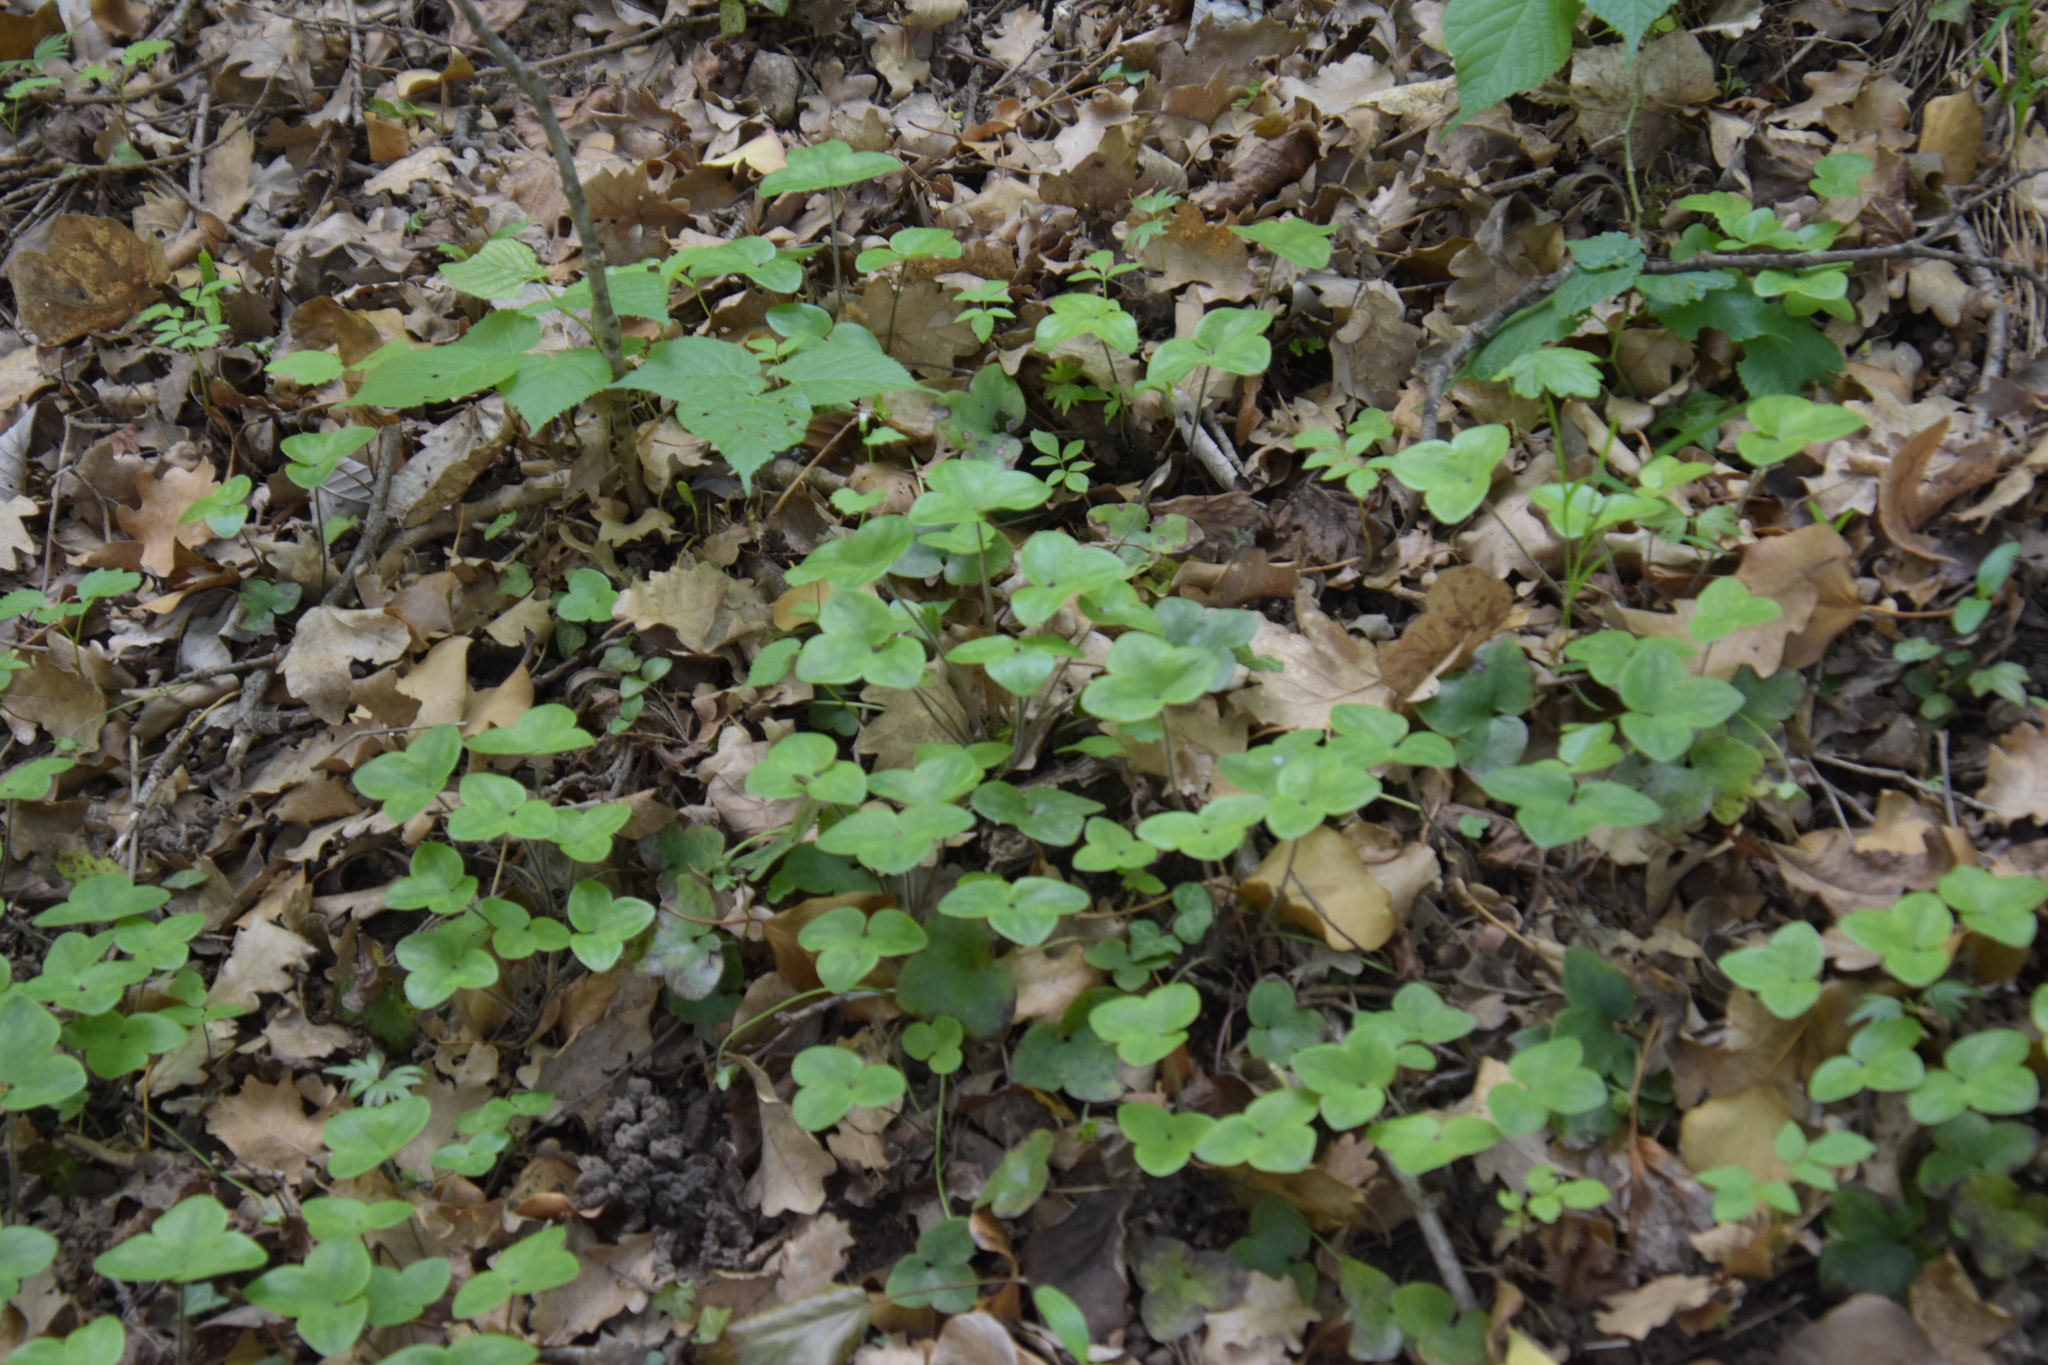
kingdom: Plantae
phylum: Tracheophyta
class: Magnoliopsida
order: Ranunculales
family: Ranunculaceae
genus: Hepatica
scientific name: Hepatica nobilis
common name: Liverleaf
